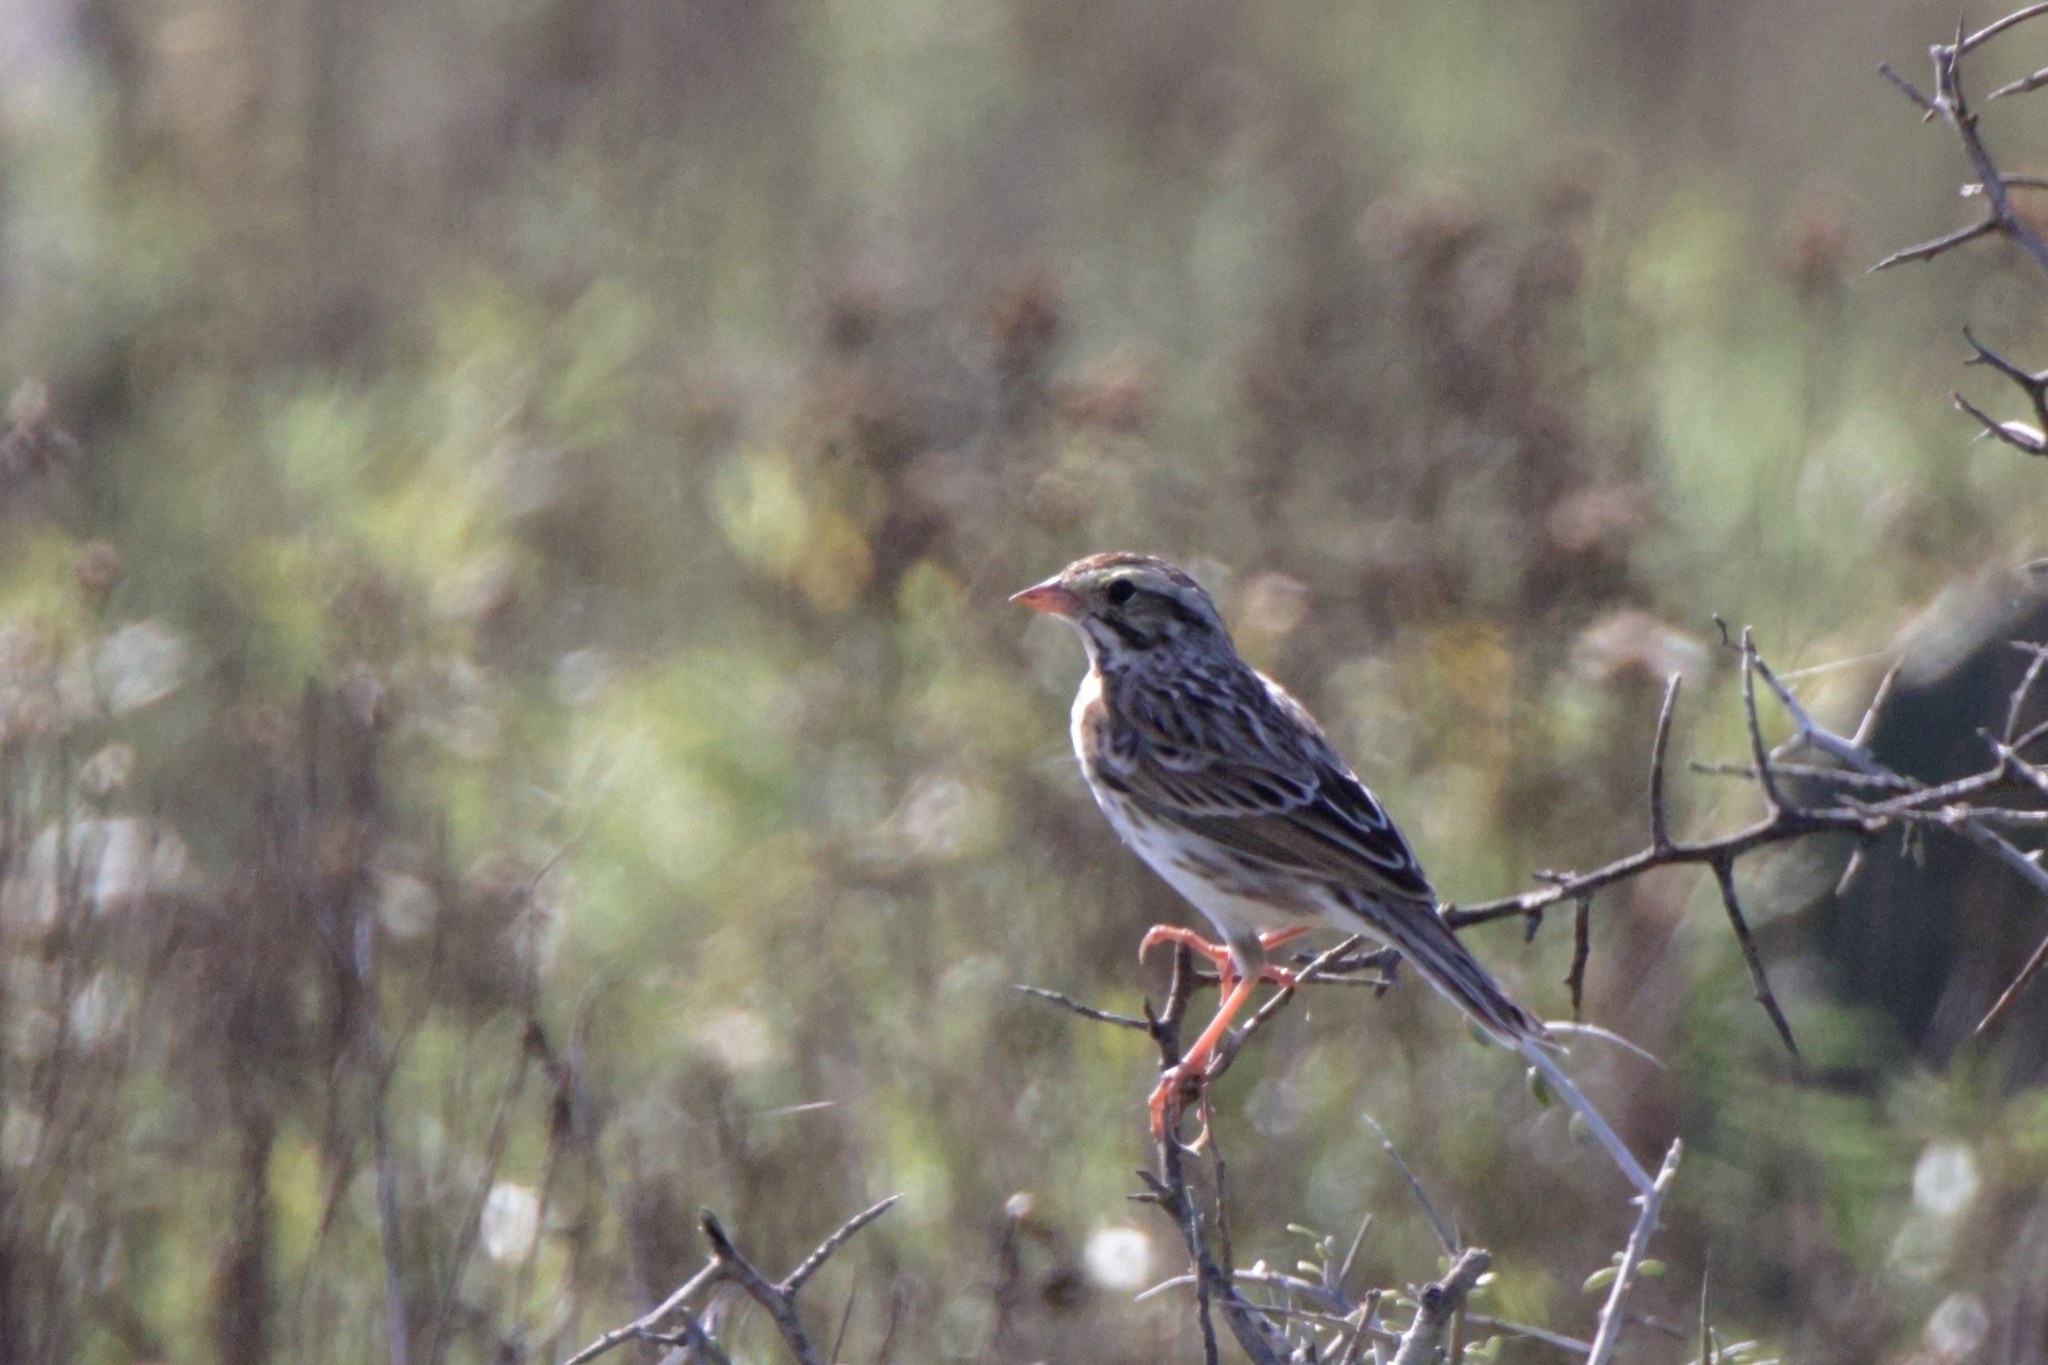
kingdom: Animalia
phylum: Chordata
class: Aves
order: Passeriformes
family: Passerellidae
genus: Passerculus
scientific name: Passerculus sandwichensis
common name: Savannah sparrow
